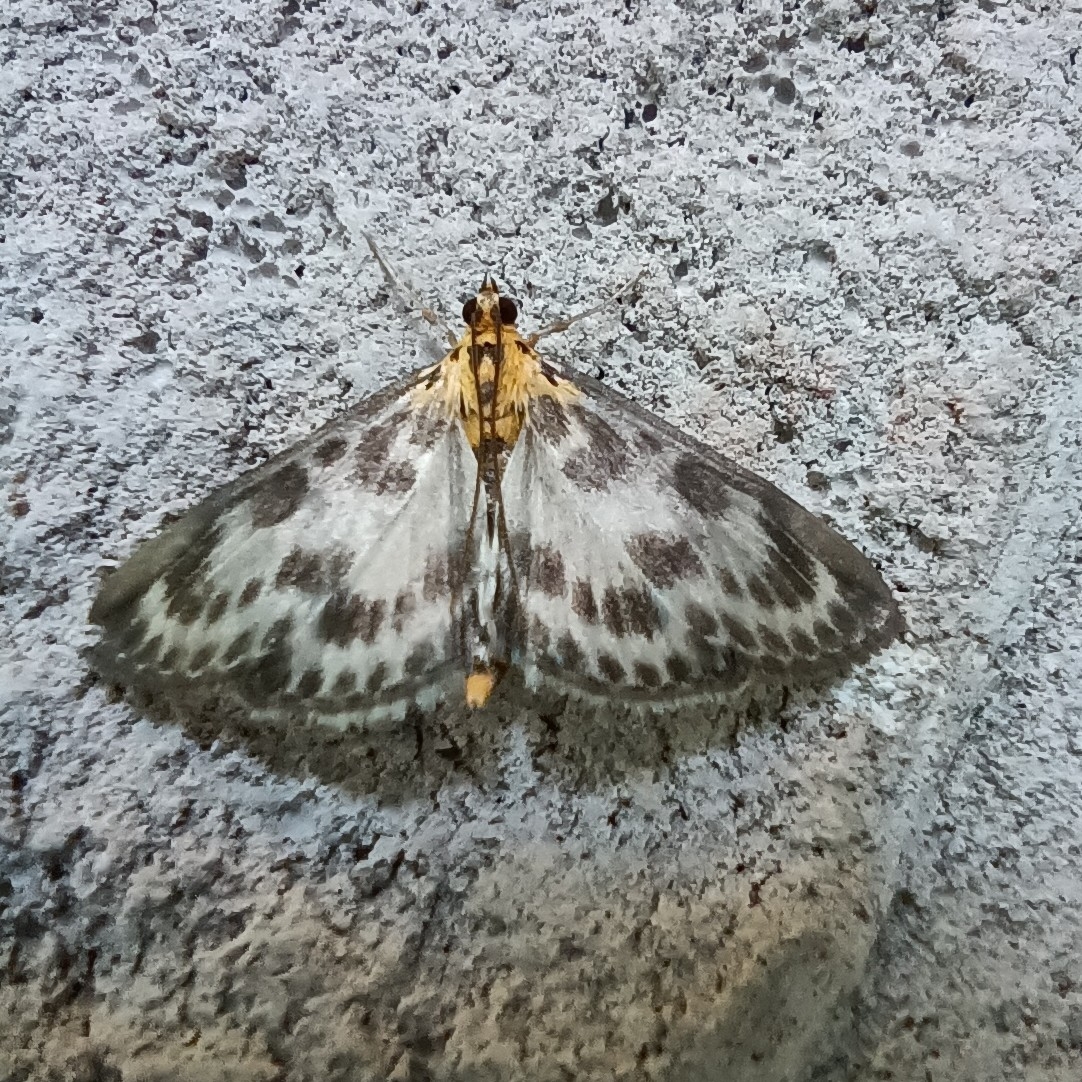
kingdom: Animalia
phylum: Arthropoda
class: Insecta
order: Lepidoptera
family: Crambidae
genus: Anania
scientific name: Anania hortulata
